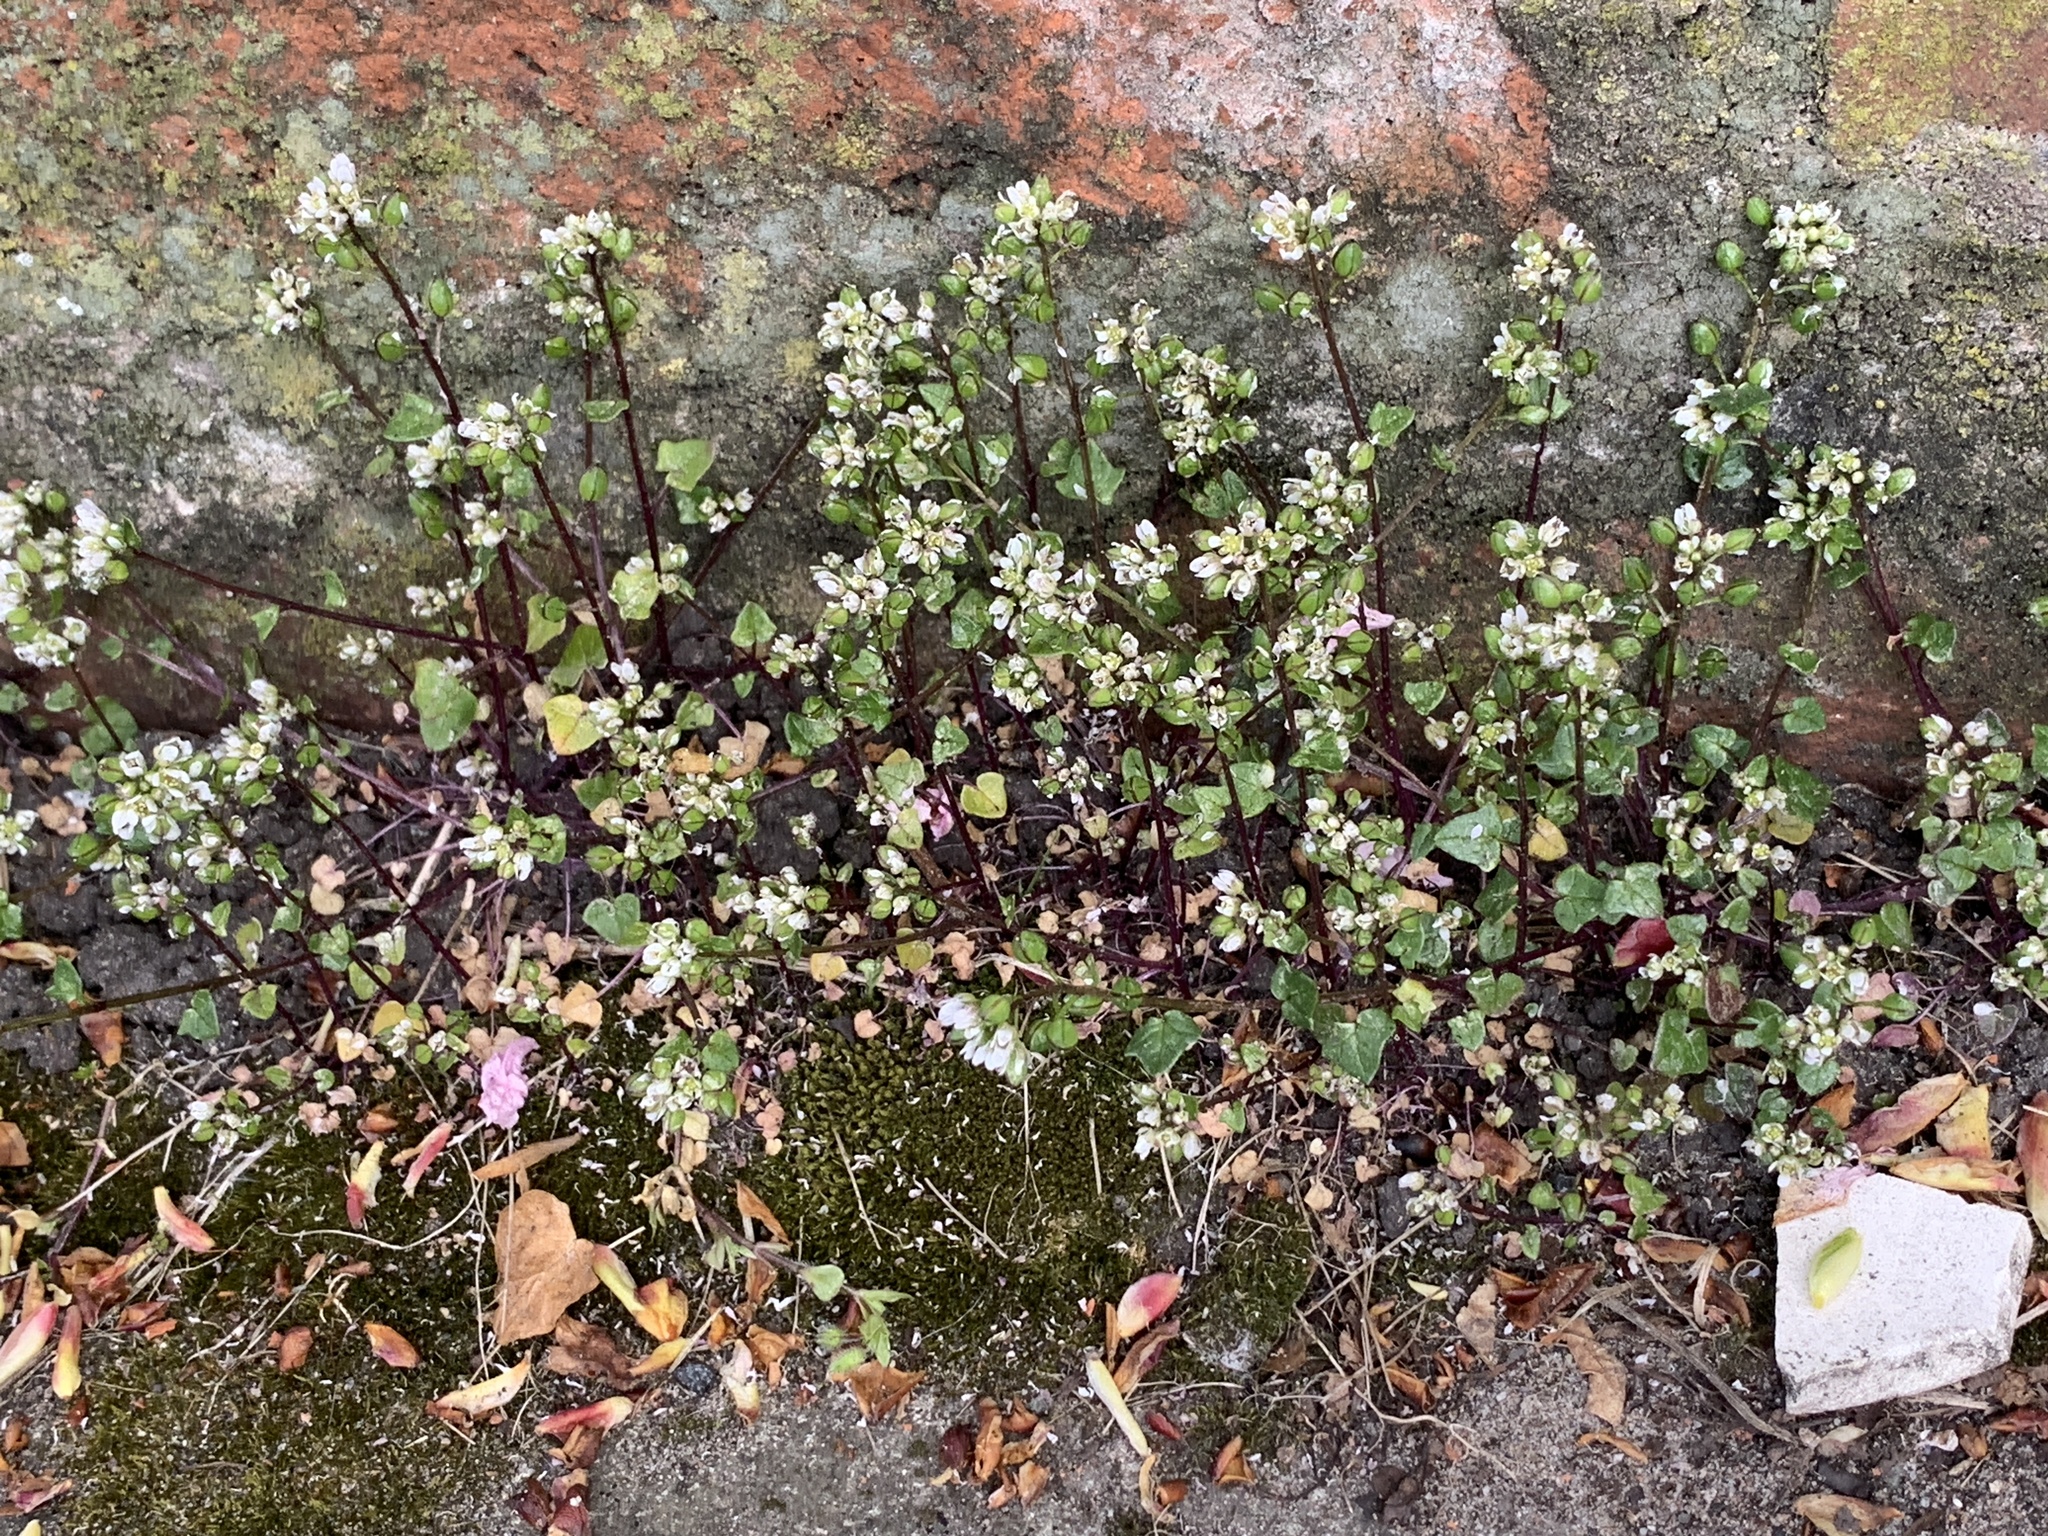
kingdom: Plantae
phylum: Tracheophyta
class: Magnoliopsida
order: Brassicales
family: Brassicaceae
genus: Cochlearia
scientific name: Cochlearia danica
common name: Early scurvygrass
